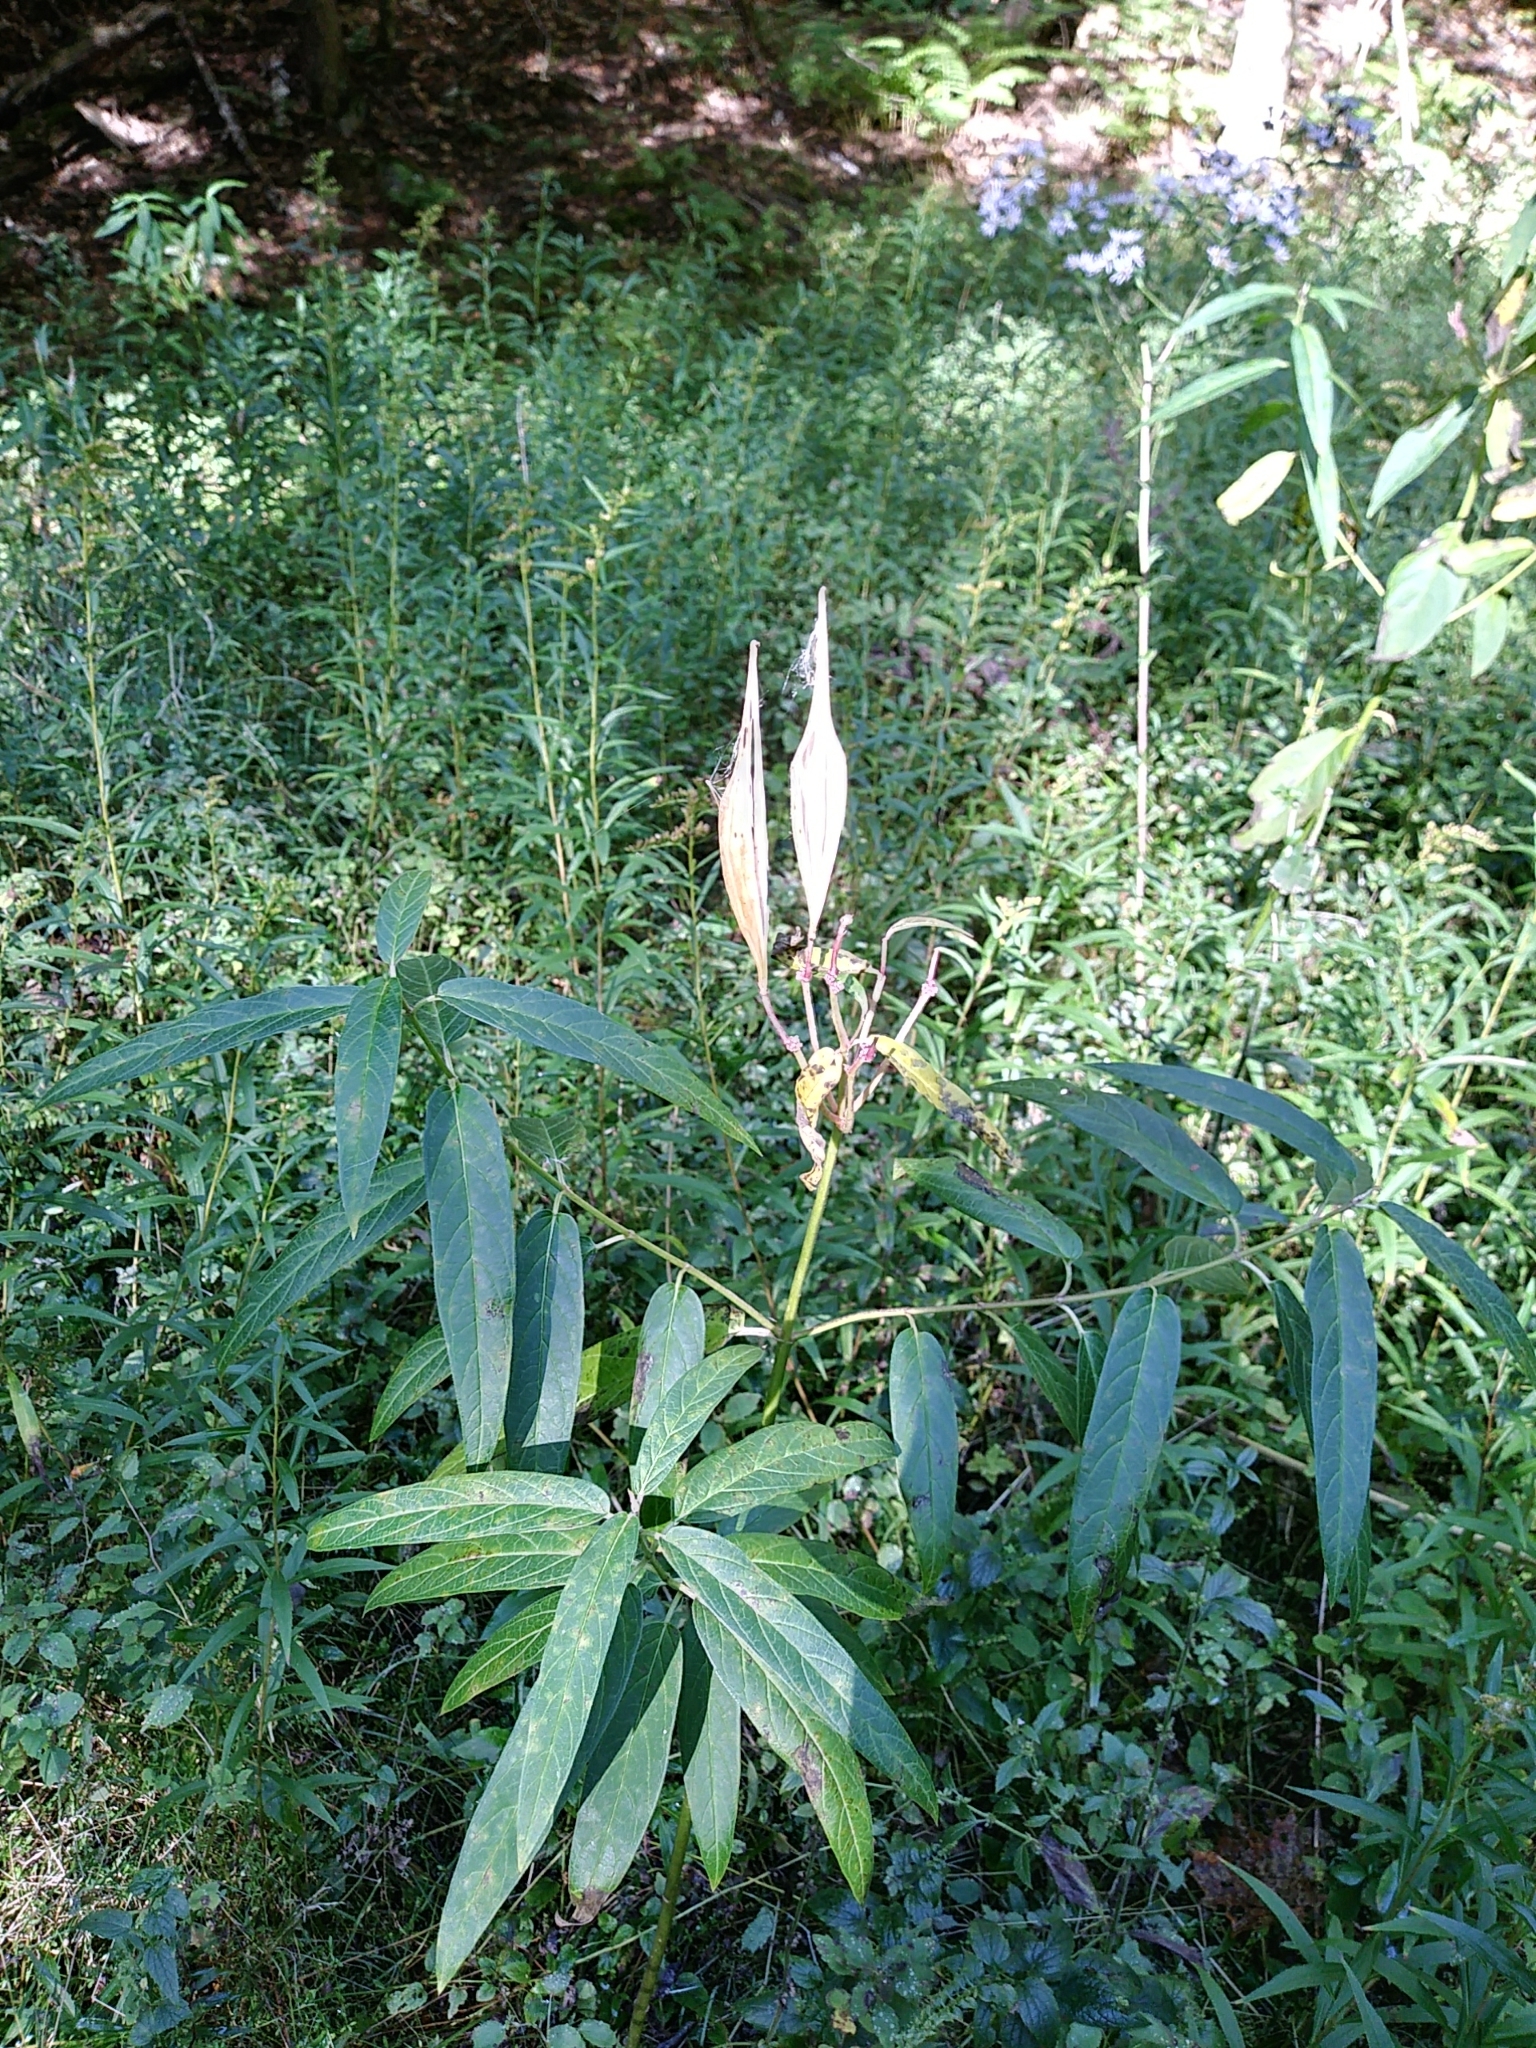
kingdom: Plantae
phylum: Tracheophyta
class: Magnoliopsida
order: Gentianales
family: Apocynaceae
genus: Asclepias
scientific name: Asclepias incarnata
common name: Swamp milkweed
